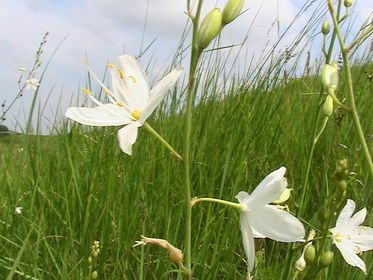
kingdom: Plantae
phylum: Tracheophyta
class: Liliopsida
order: Asparagales
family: Asparagaceae
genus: Anthericum
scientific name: Anthericum ramosum
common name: Branched st. bernard's-lily
